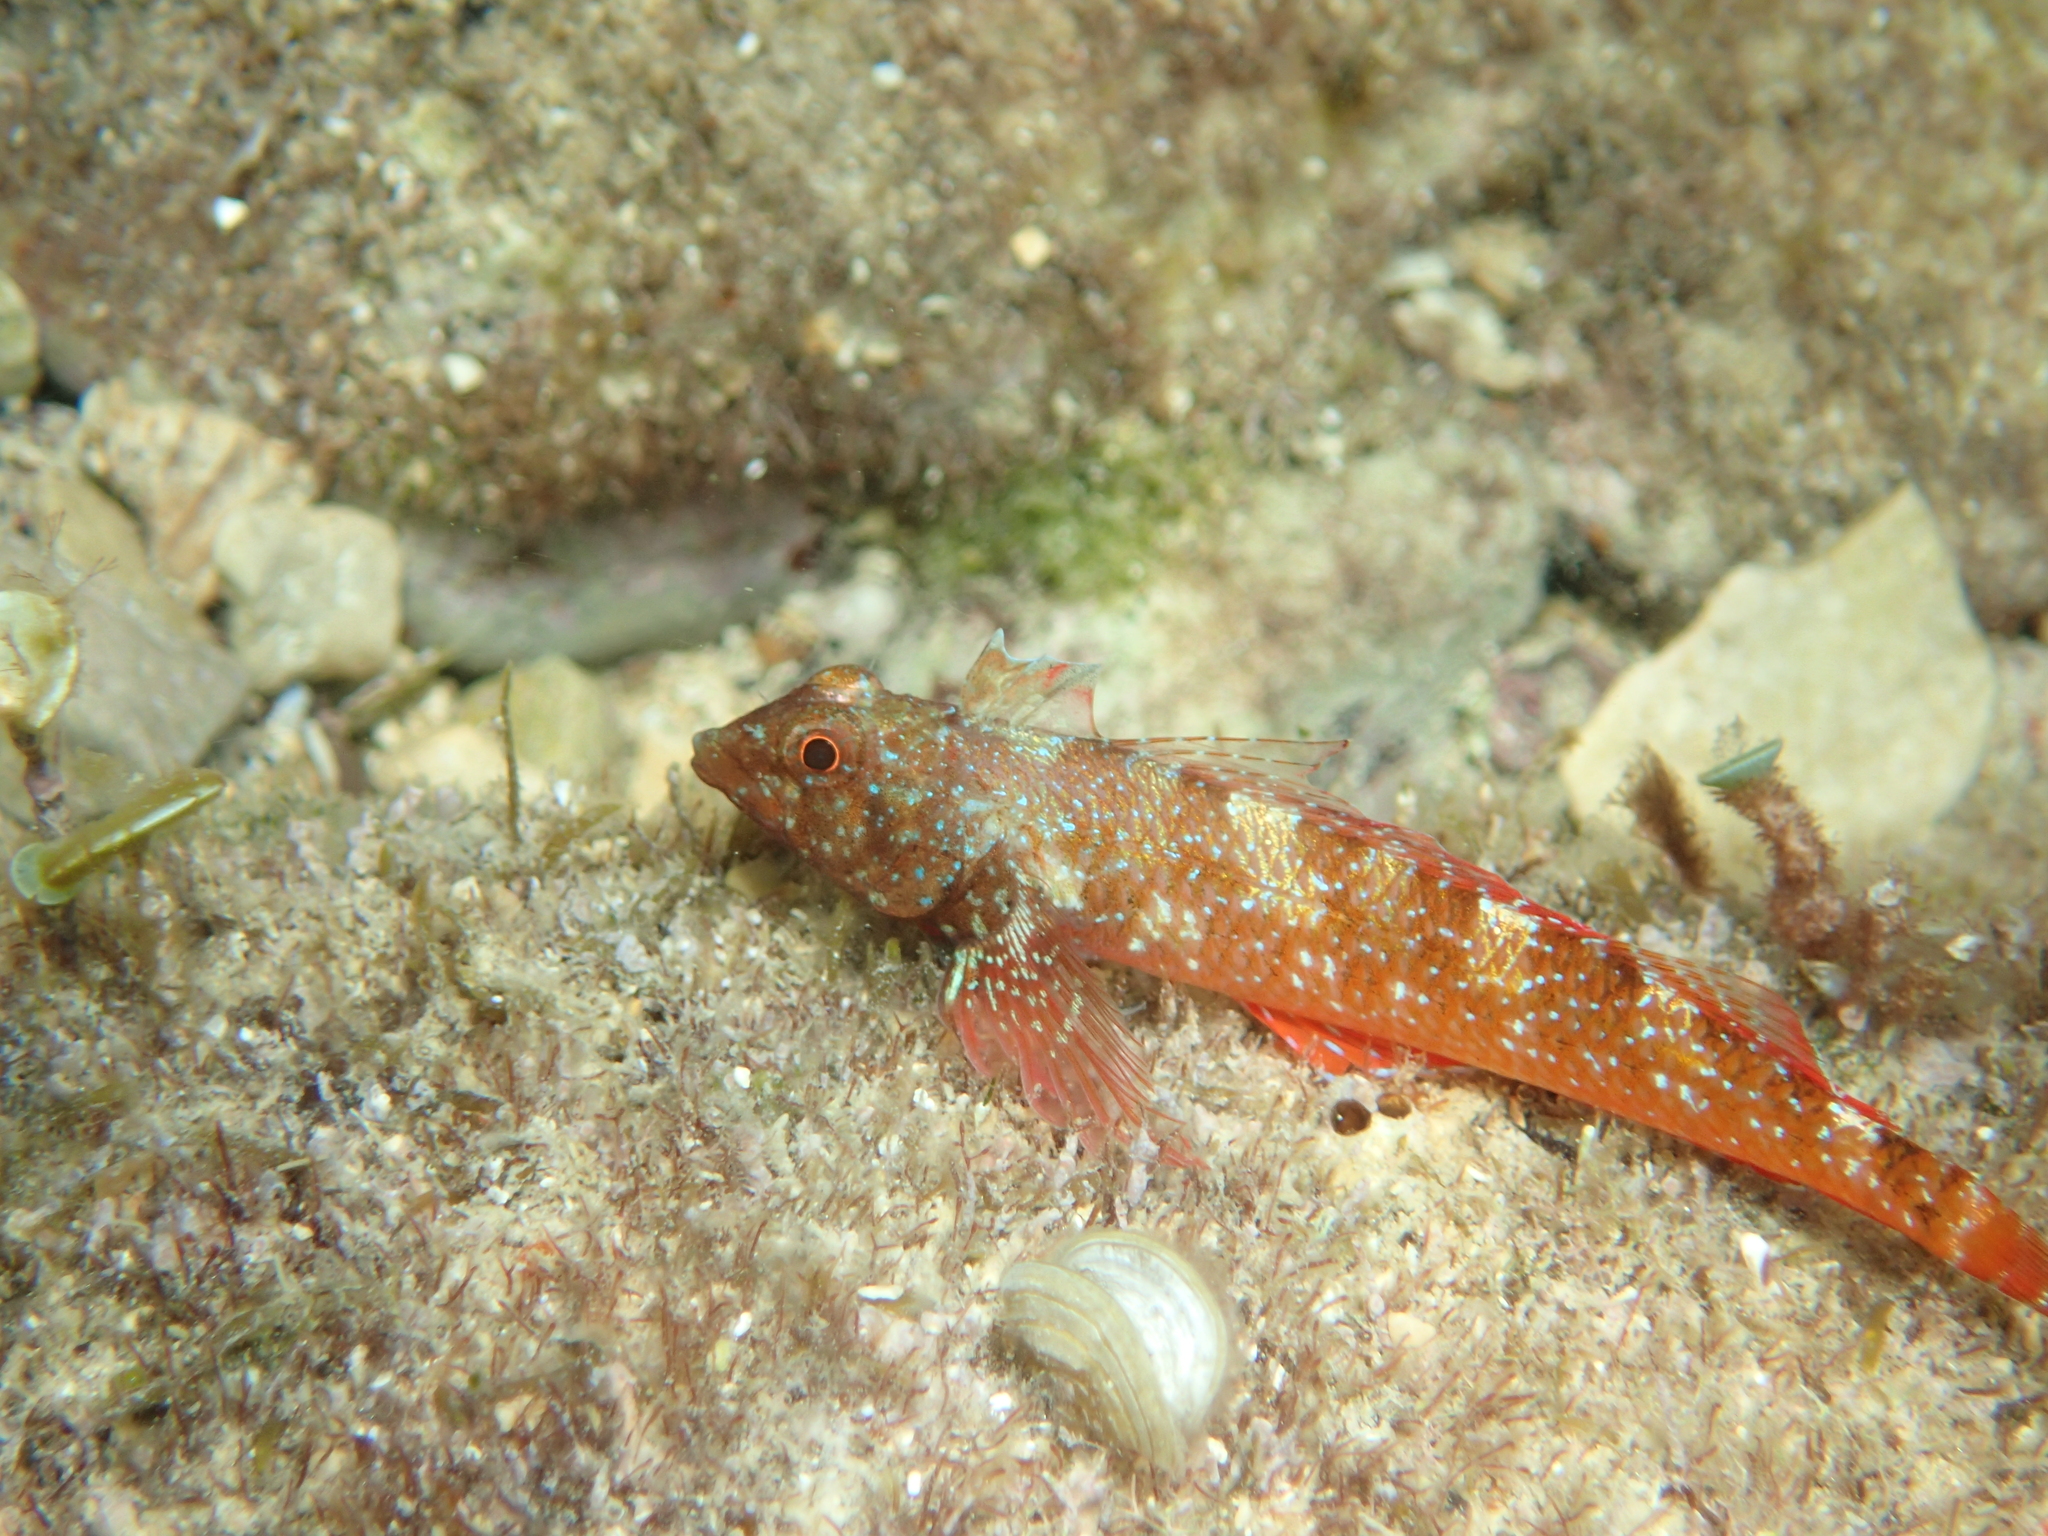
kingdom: Animalia
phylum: Chordata
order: Perciformes
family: Tripterygiidae
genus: Tripterygion
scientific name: Tripterygion tripteronotum
